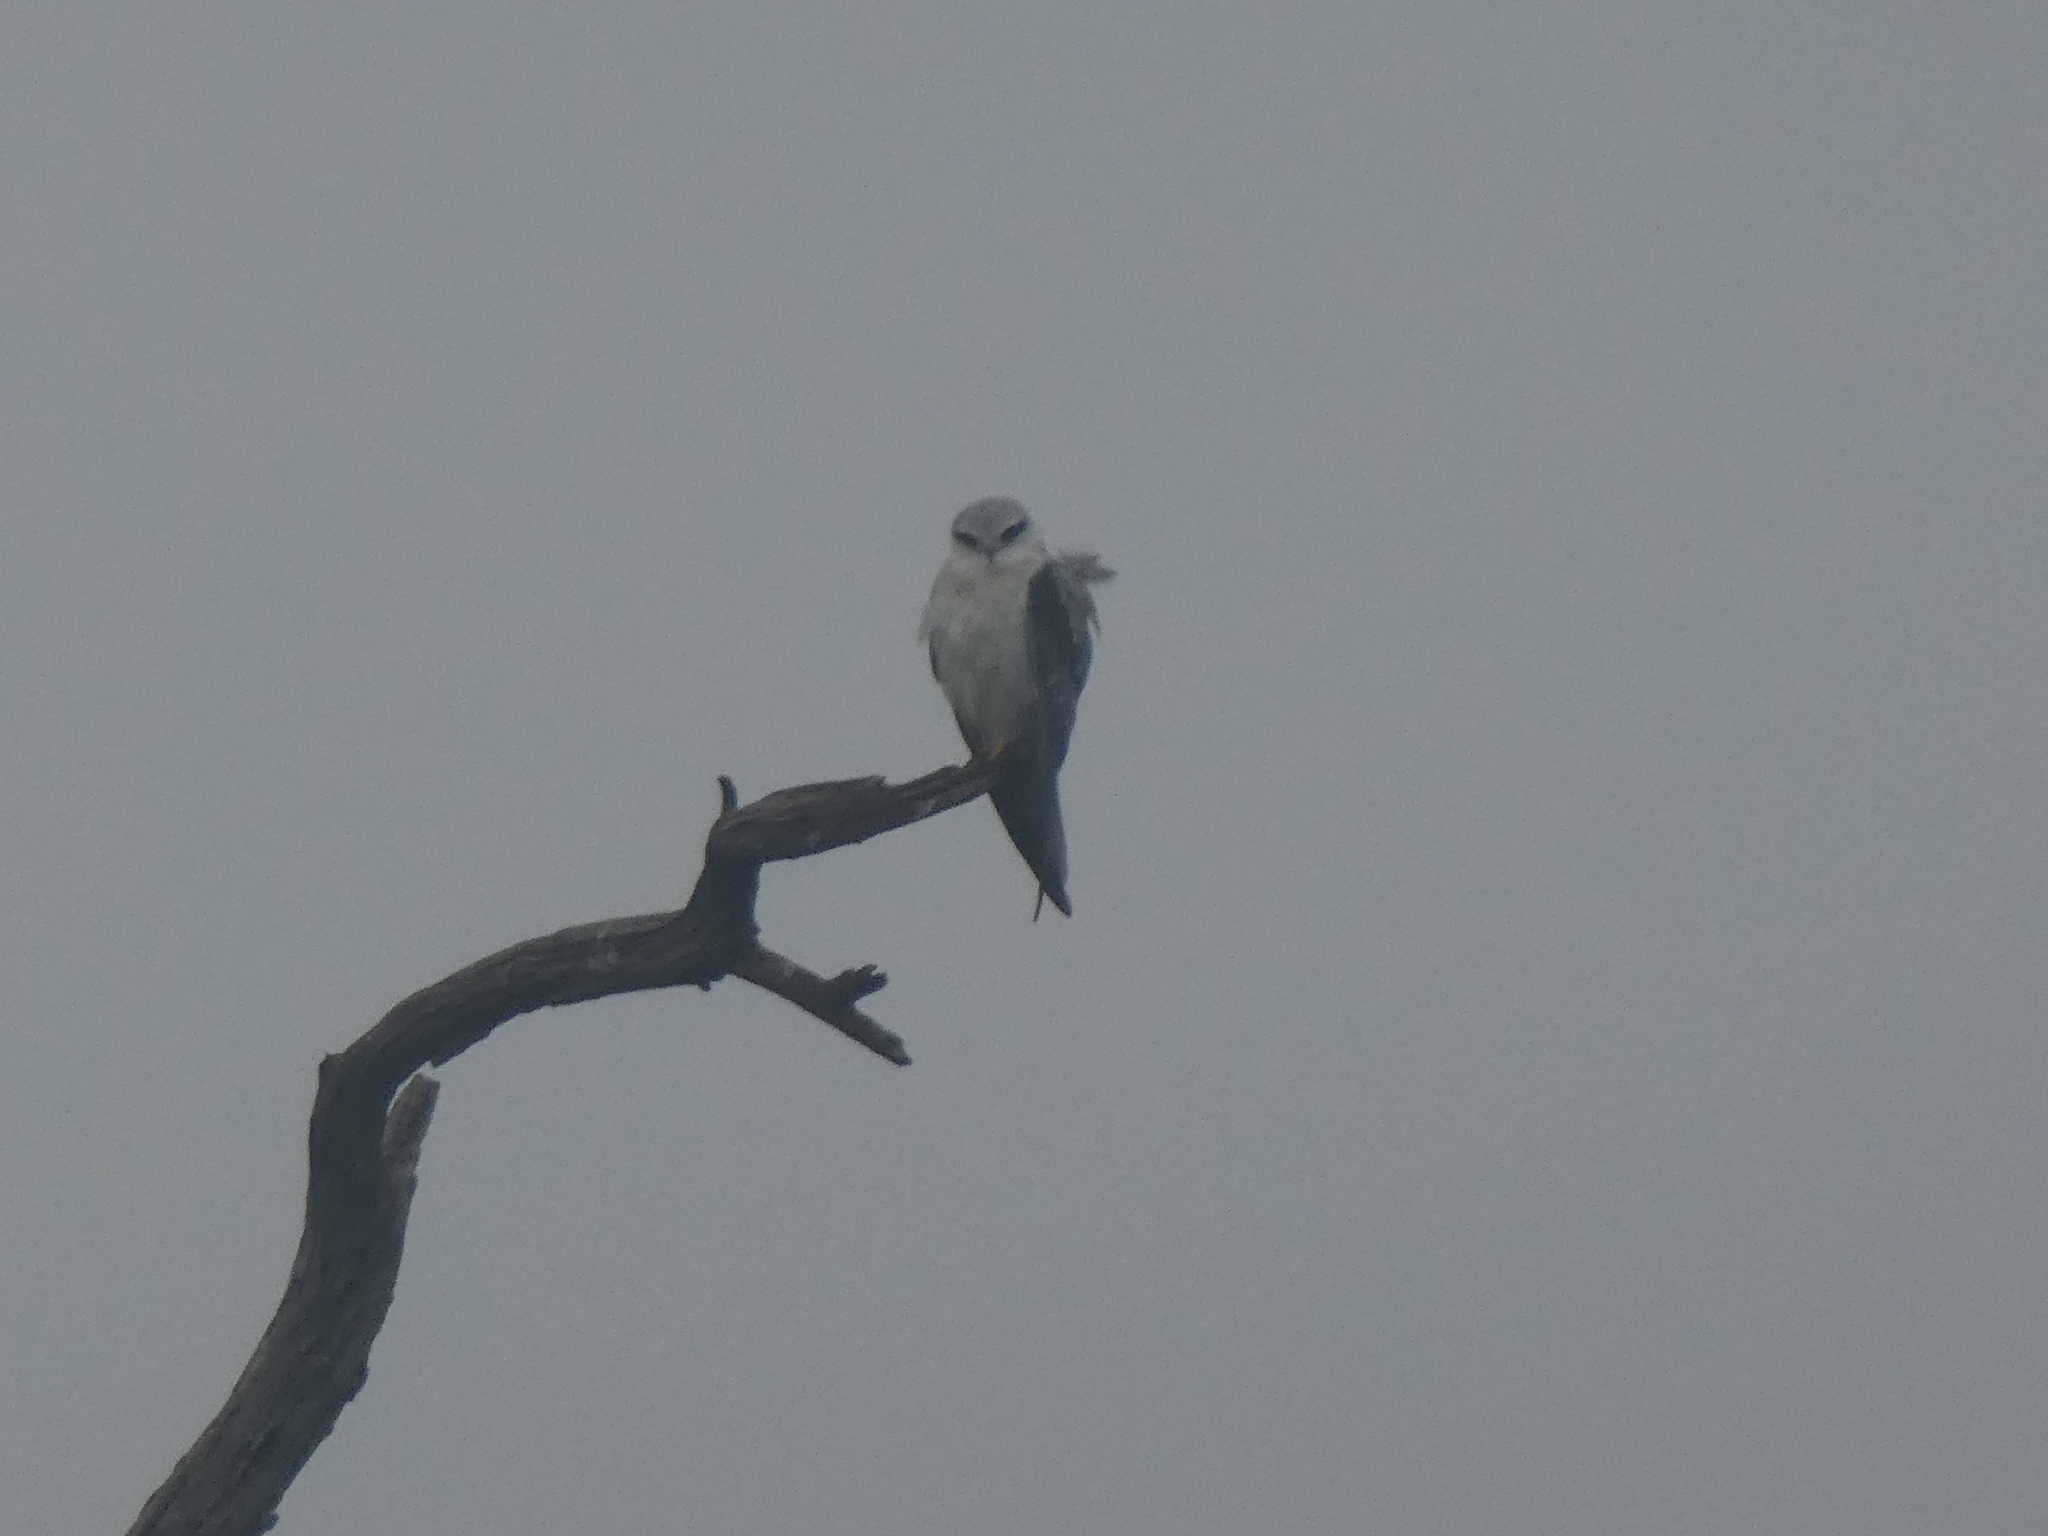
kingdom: Animalia
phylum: Chordata
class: Aves
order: Accipitriformes
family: Accipitridae
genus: Elanus
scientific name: Elanus caeruleus
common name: Black-winged kite
